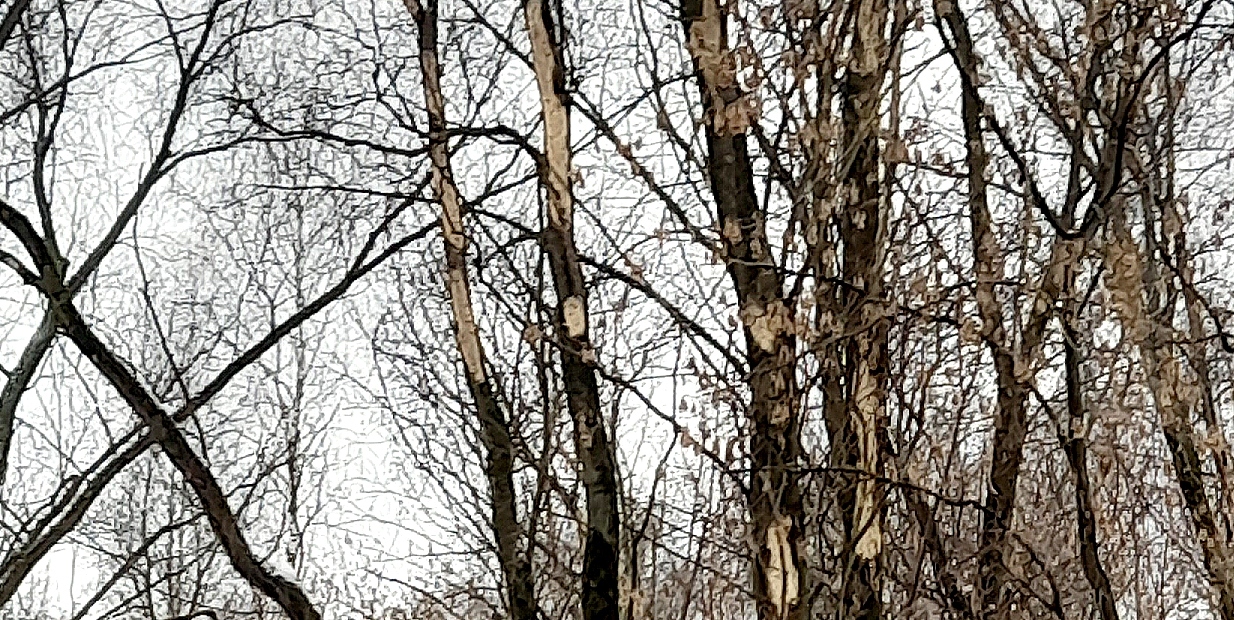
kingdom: Animalia
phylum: Chordata
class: Aves
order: Piciformes
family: Picidae
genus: Dryocopus
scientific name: Dryocopus martius
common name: Black woodpecker
